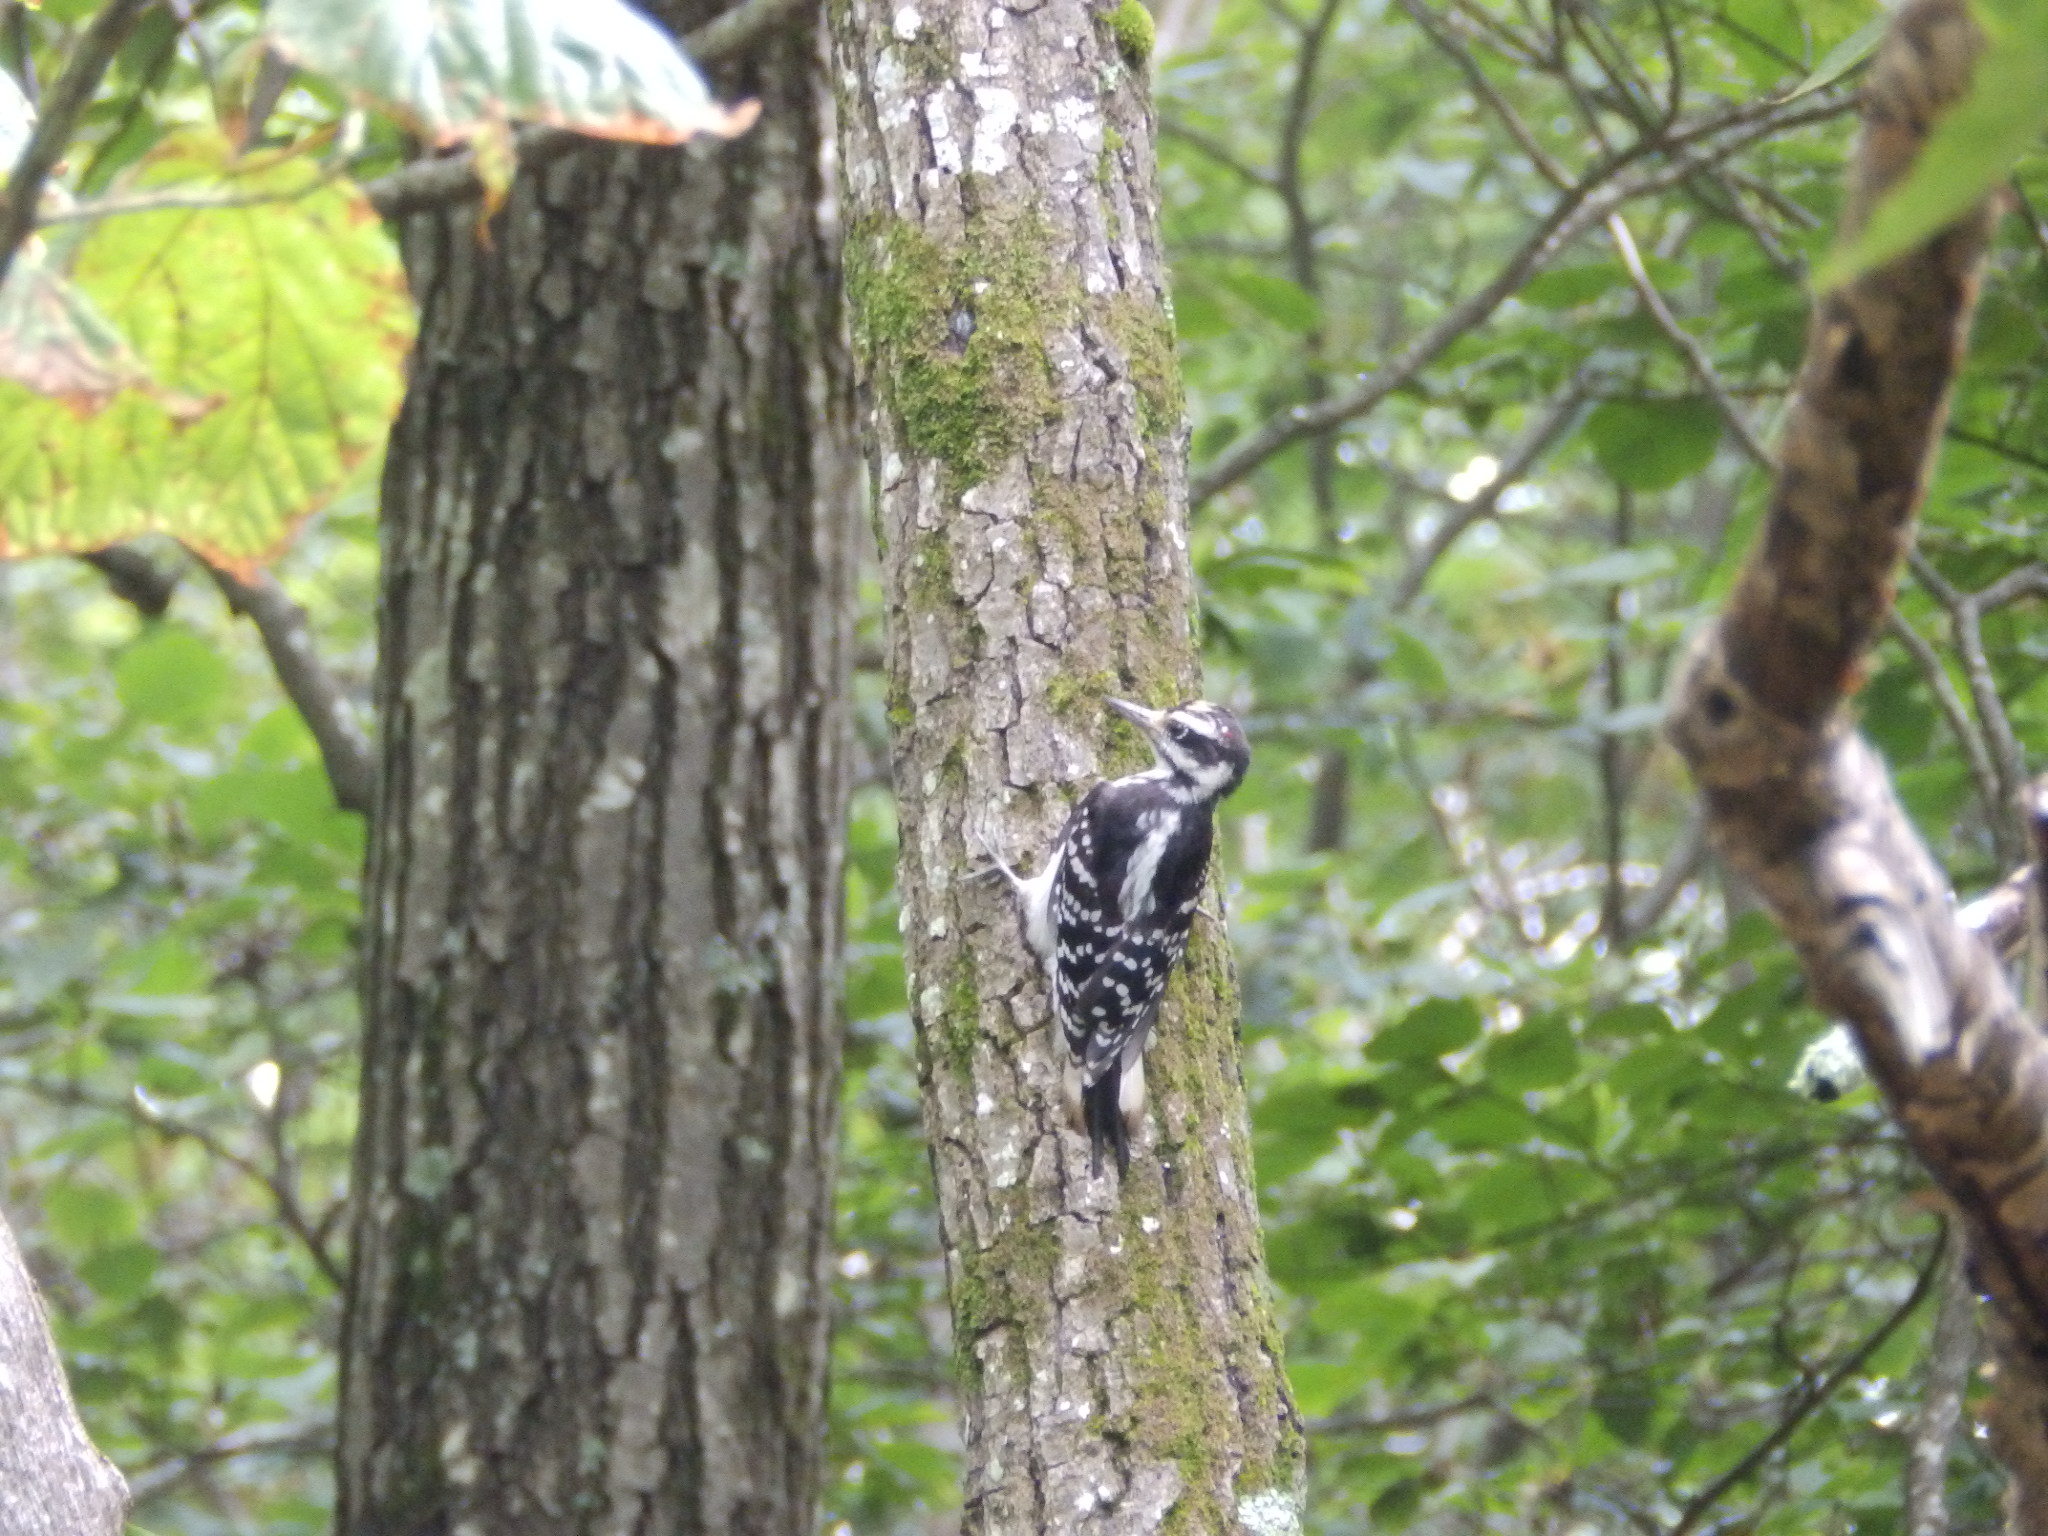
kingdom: Animalia
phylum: Chordata
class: Aves
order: Piciformes
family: Picidae
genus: Leuconotopicus
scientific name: Leuconotopicus villosus
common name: Hairy woodpecker
